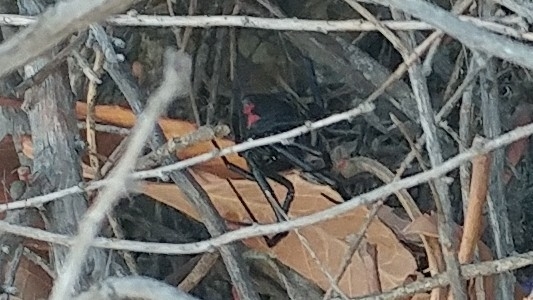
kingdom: Animalia
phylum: Arthropoda
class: Arachnida
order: Araneae
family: Theridiidae
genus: Latrodectus
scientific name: Latrodectus hesperus
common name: Western black widow
